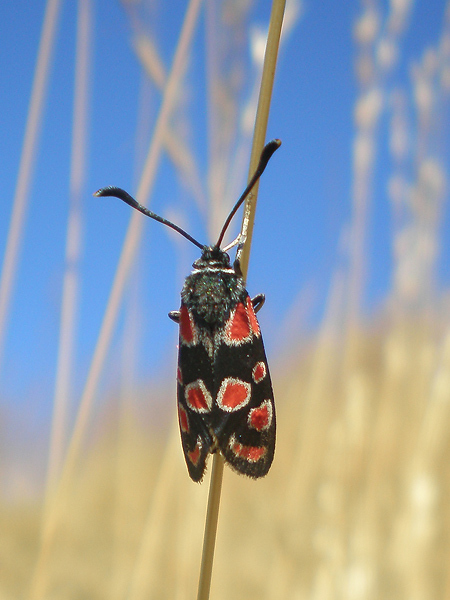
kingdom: Animalia
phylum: Arthropoda
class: Insecta
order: Lepidoptera
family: Zygaenidae
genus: Zygaena
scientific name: Zygaena carniolica
